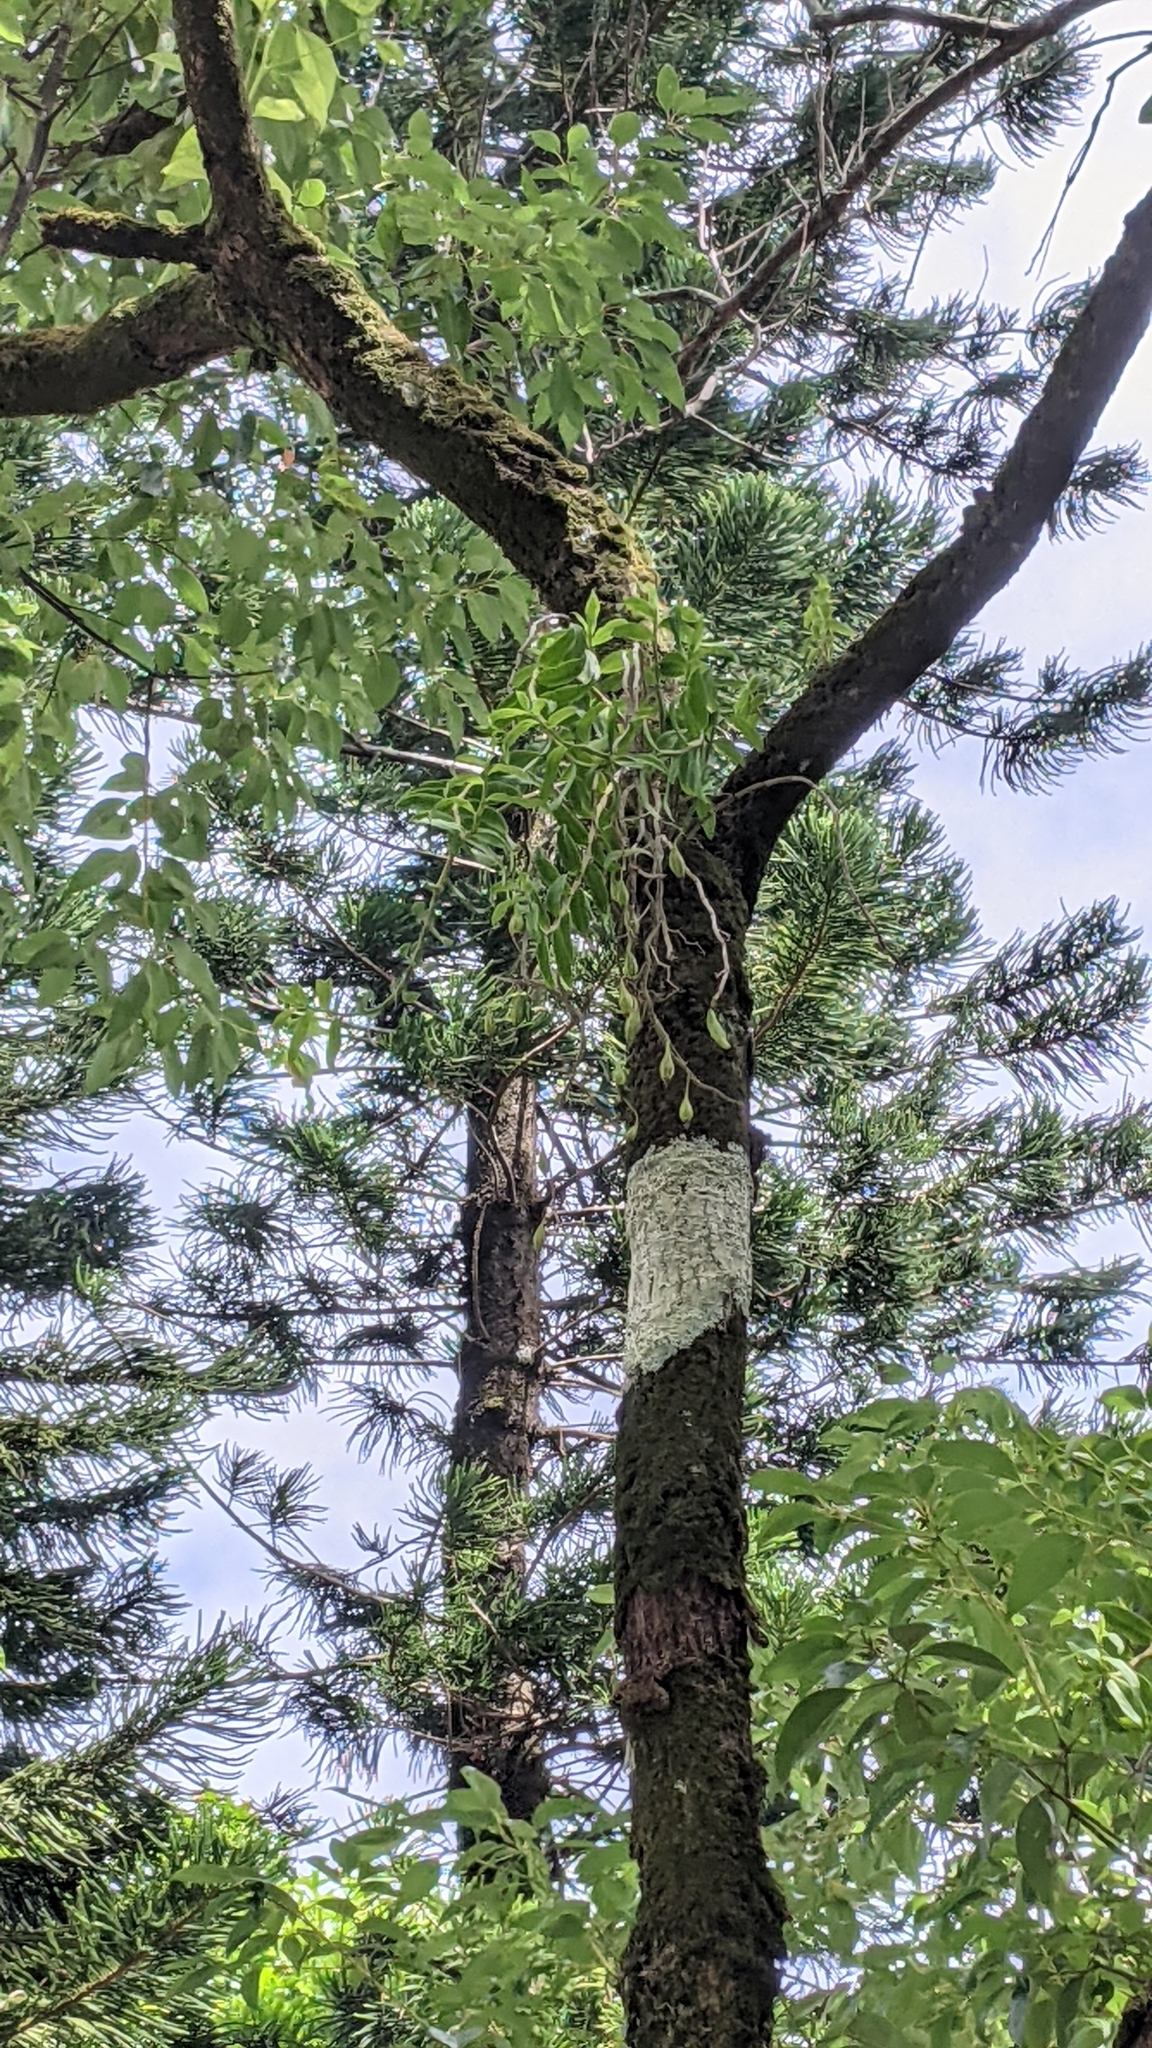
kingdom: Plantae
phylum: Tracheophyta
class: Liliopsida
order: Asparagales
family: Orchidaceae
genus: Dendrobium
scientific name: Dendrobium officinale
